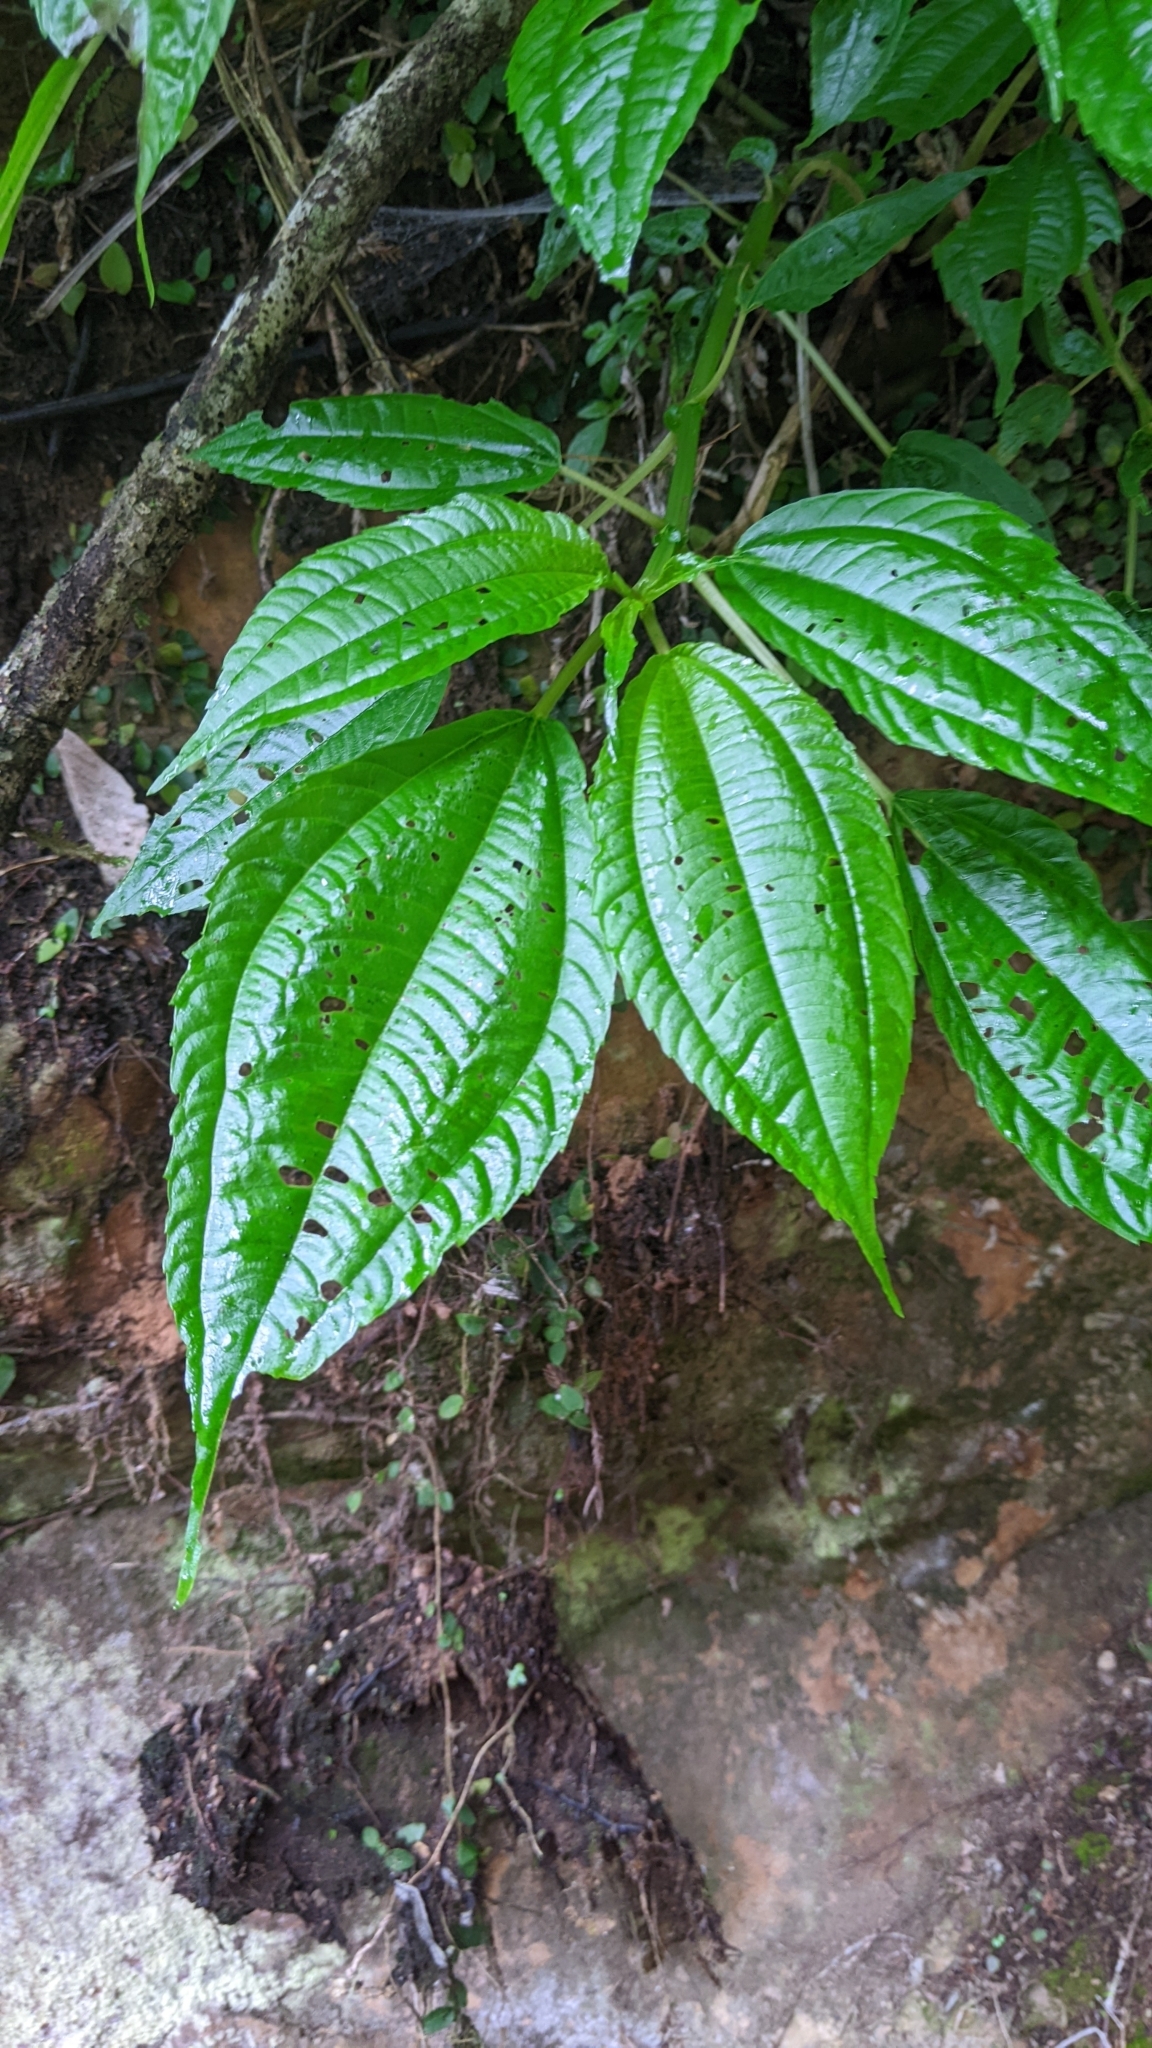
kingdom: Plantae
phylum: Tracheophyta
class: Magnoliopsida
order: Rosales
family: Urticaceae
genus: Pilea
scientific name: Pilea melastomoides
